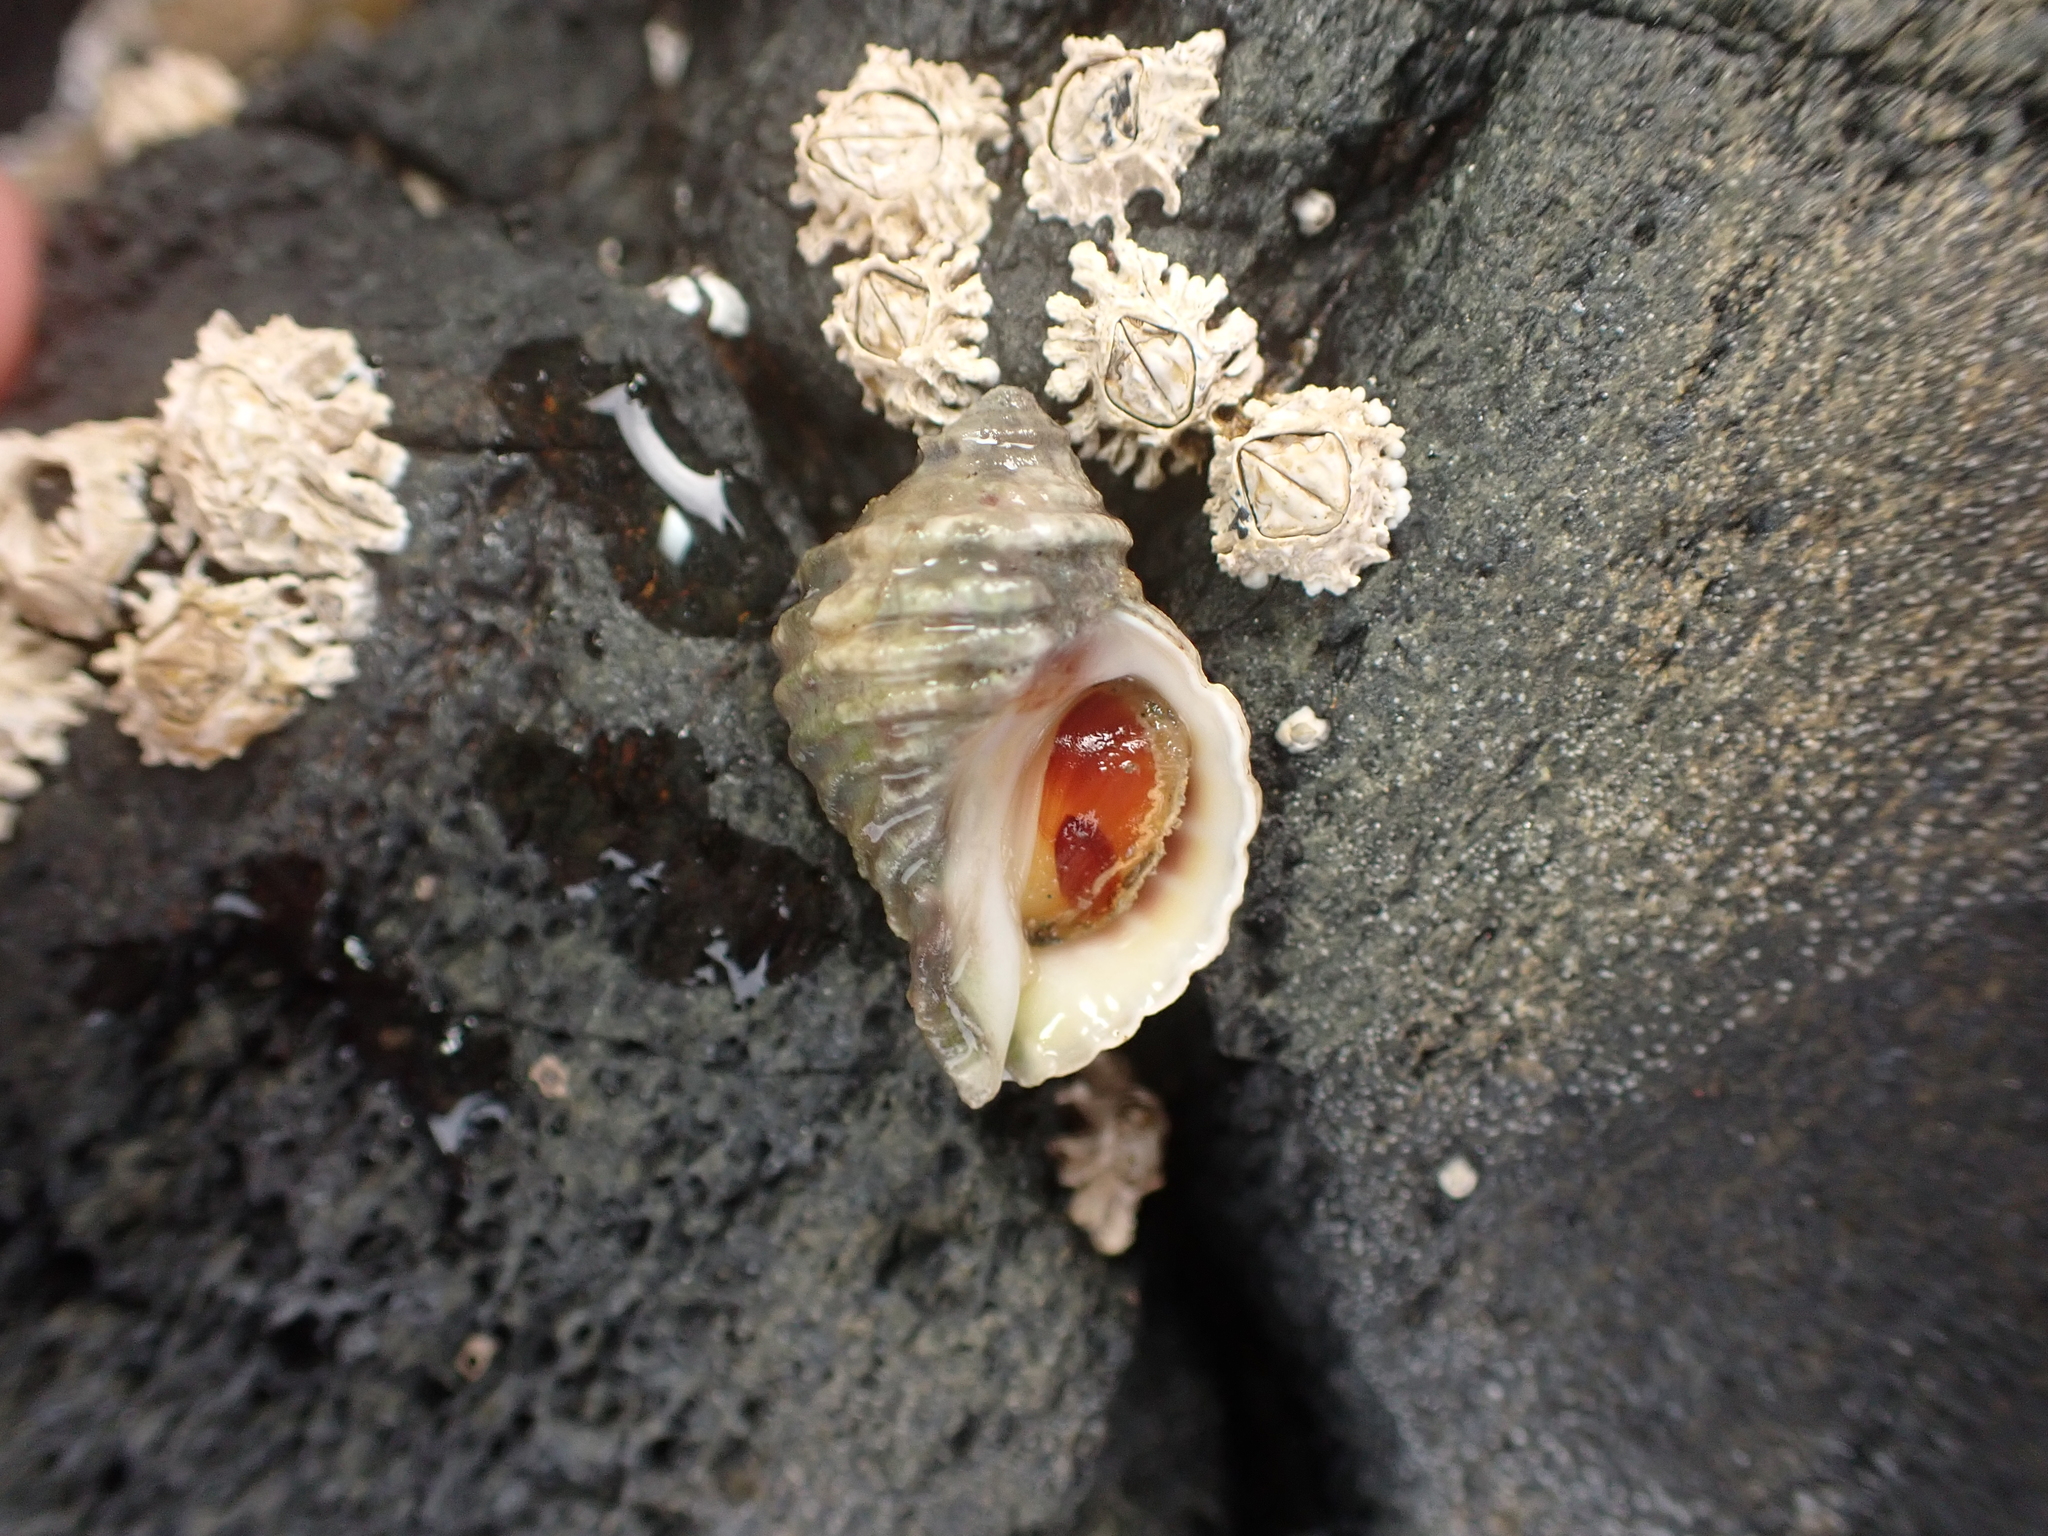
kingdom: Animalia
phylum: Mollusca
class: Gastropoda
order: Neogastropoda
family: Muricidae
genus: Haustrum
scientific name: Haustrum lacunosum
